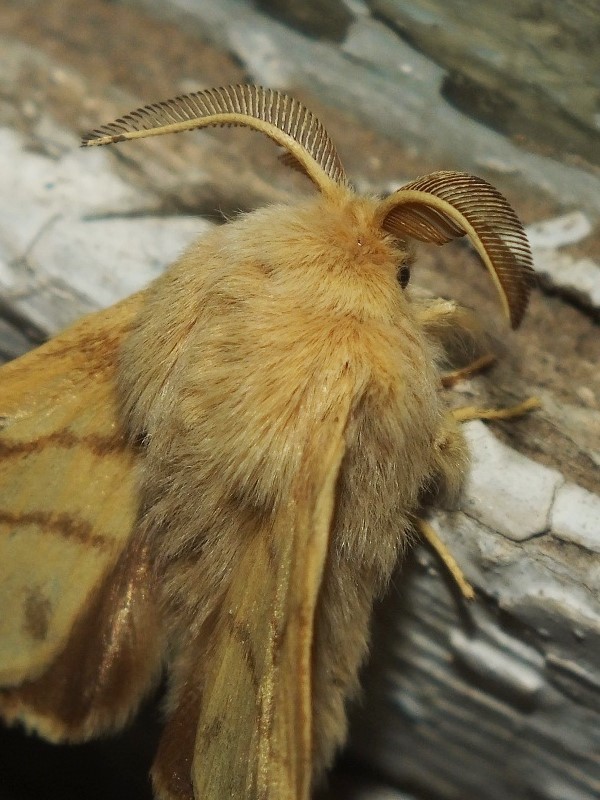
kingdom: Animalia
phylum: Arthropoda
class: Insecta
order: Lepidoptera
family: Lasiocampidae
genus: Malacosoma
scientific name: Malacosoma neustria
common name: The lackey
